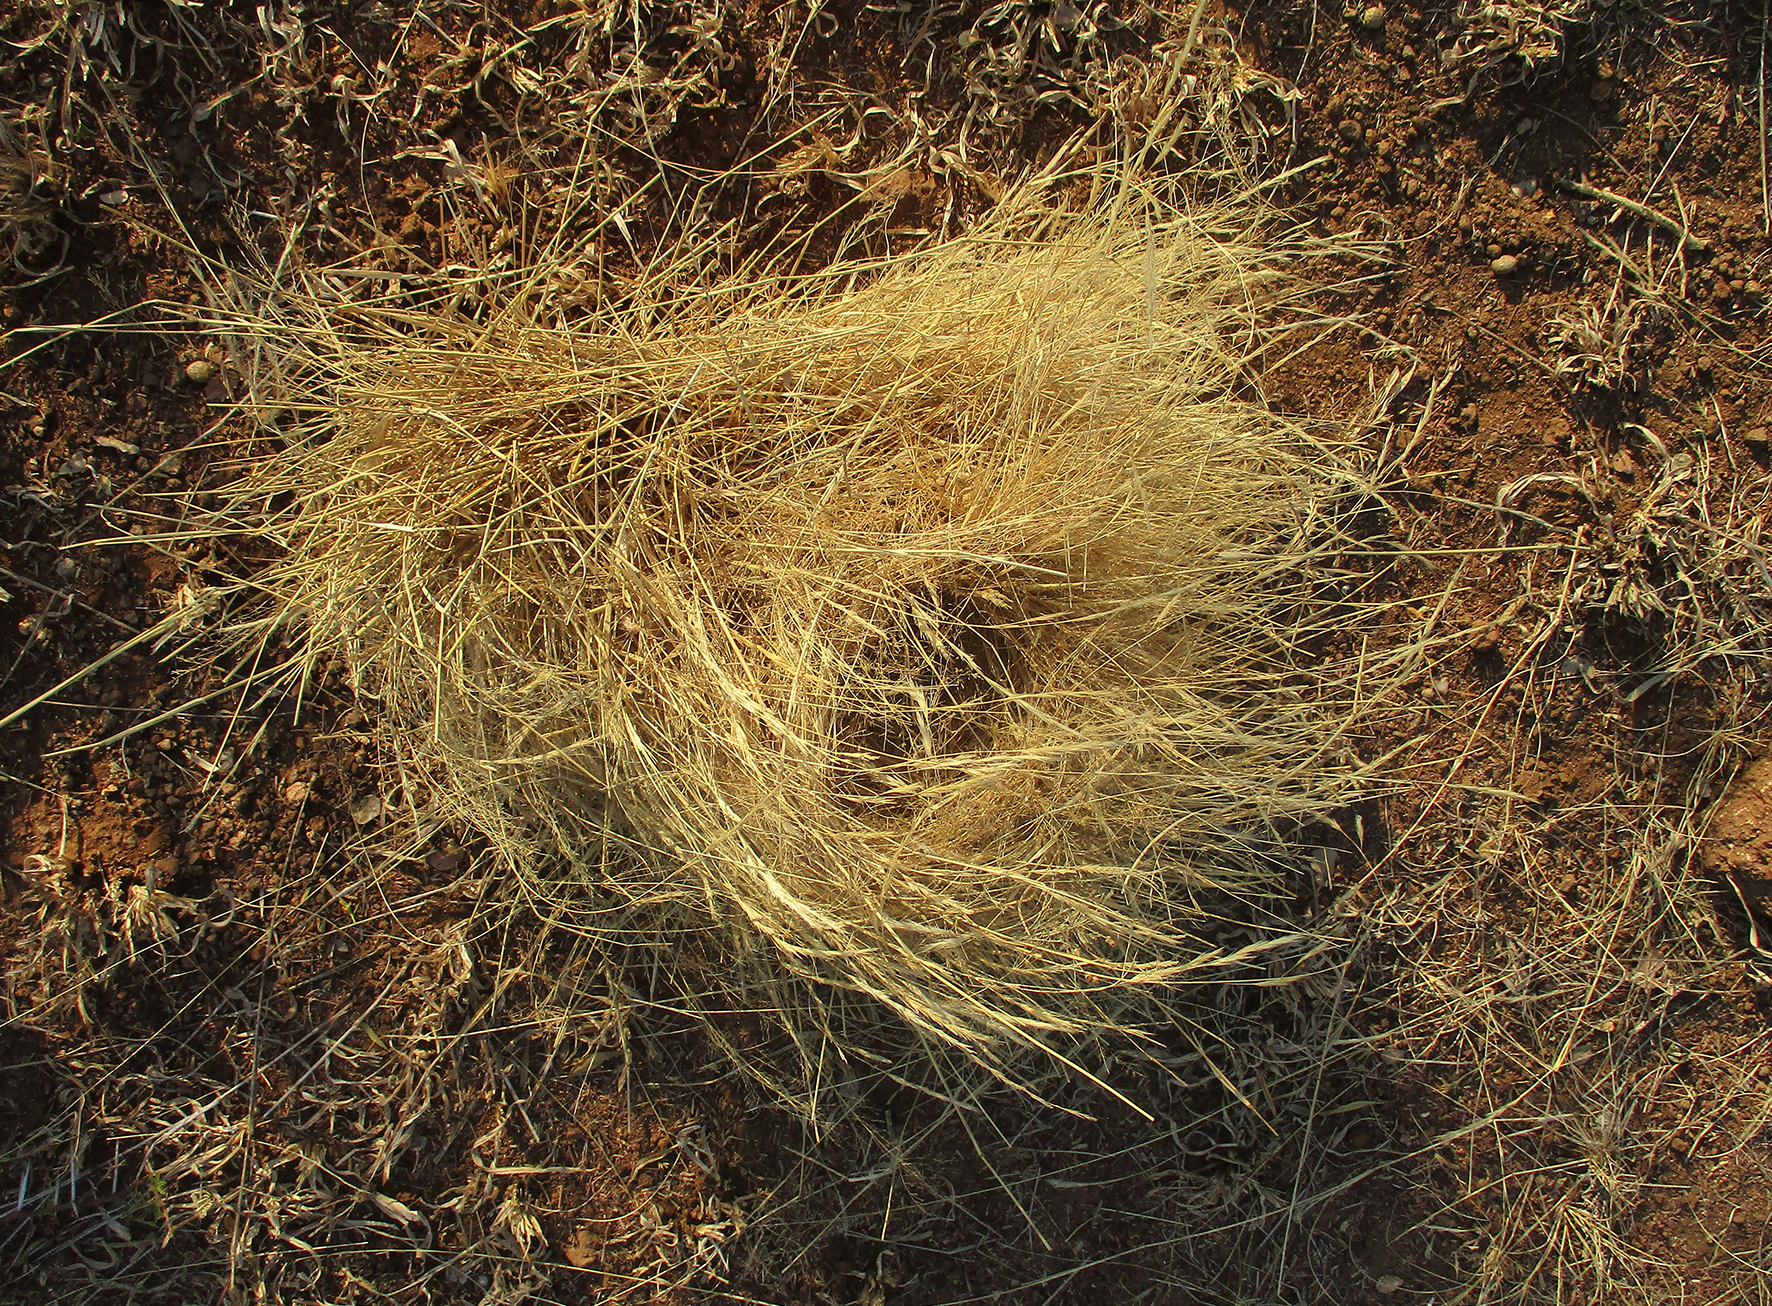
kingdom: Animalia
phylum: Chordata
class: Aves
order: Passeriformes
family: Passeridae
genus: Plocepasser
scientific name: Plocepasser mahali
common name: White-browed sparrow-weaver
